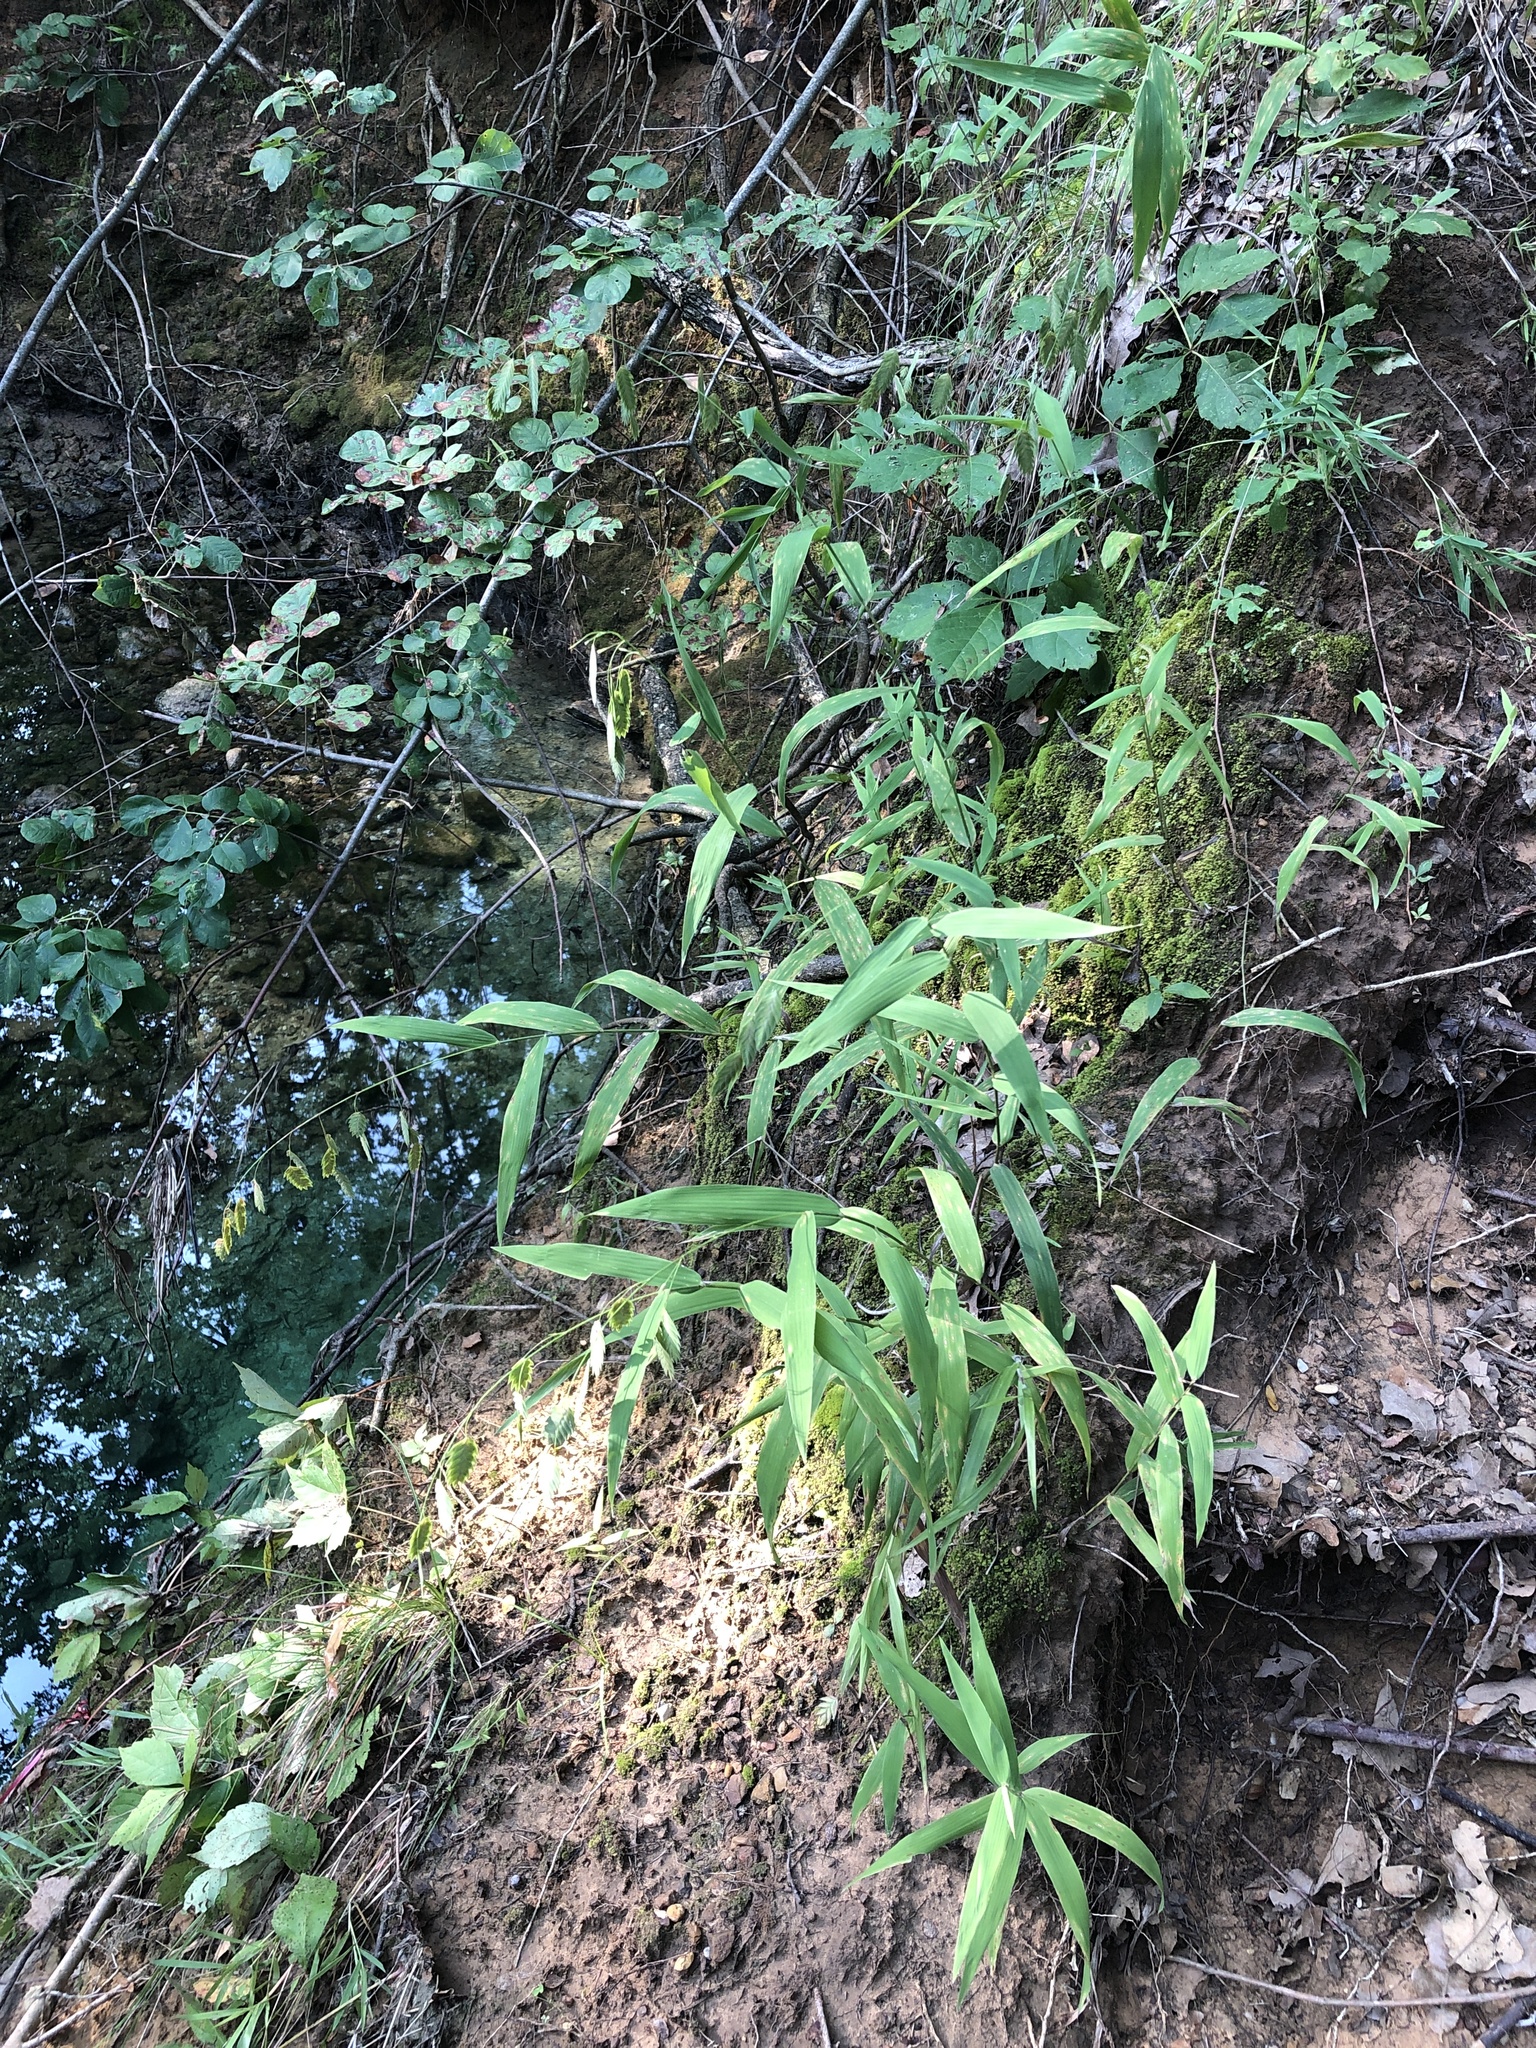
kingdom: Plantae
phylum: Tracheophyta
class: Liliopsida
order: Poales
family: Poaceae
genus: Chasmanthium
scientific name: Chasmanthium latifolium
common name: Broad-leaved chasmanthium
